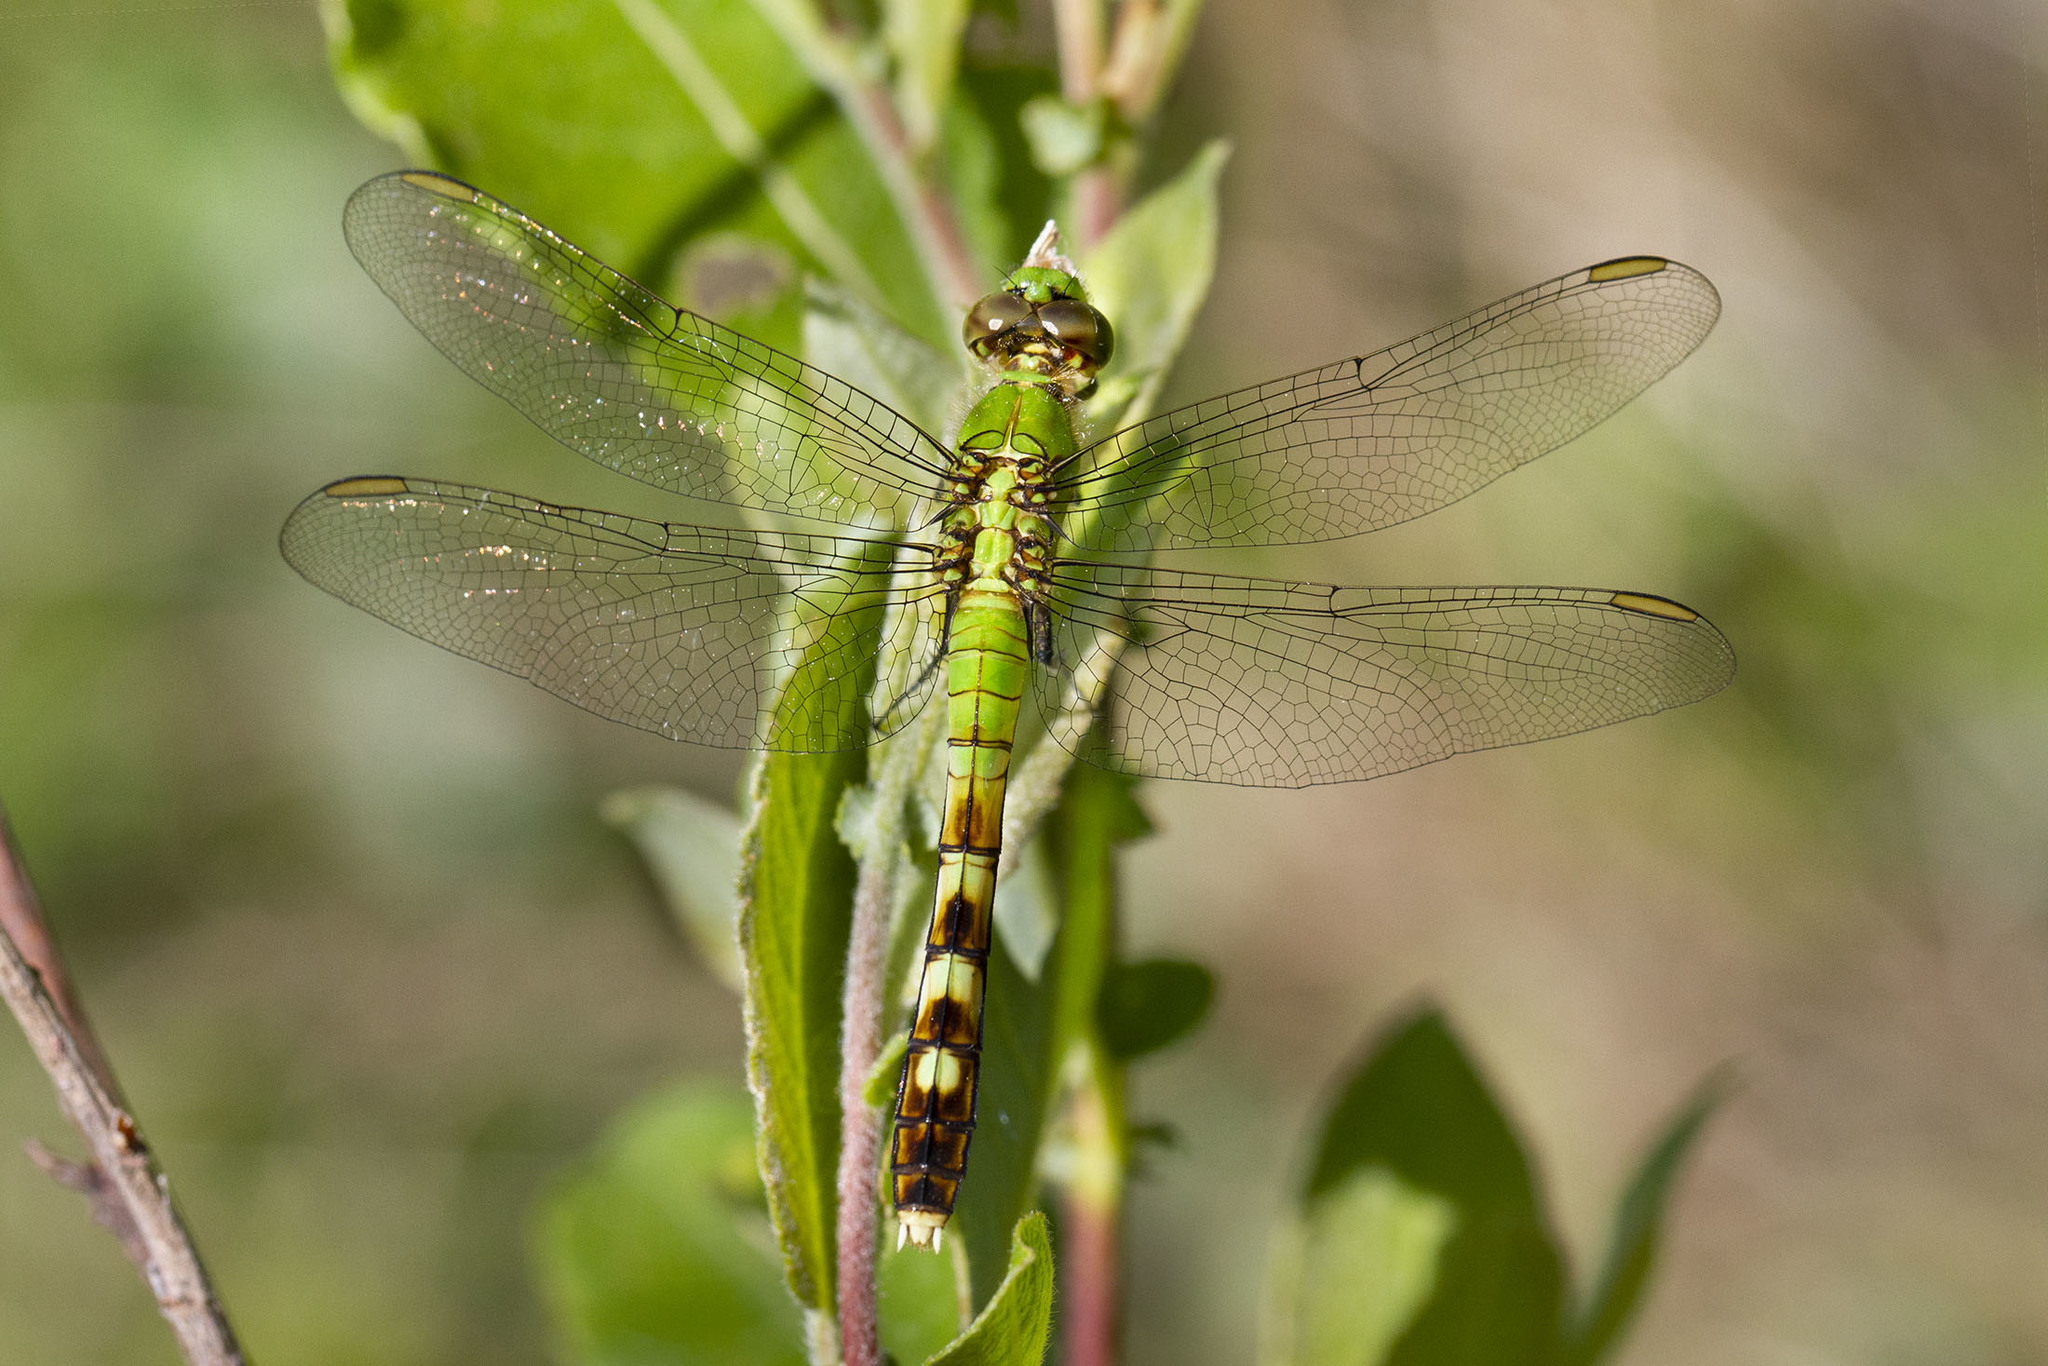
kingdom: Animalia
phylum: Arthropoda
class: Insecta
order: Odonata
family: Libellulidae
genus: Erythemis
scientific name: Erythemis simplicicollis
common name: Eastern pondhawk
